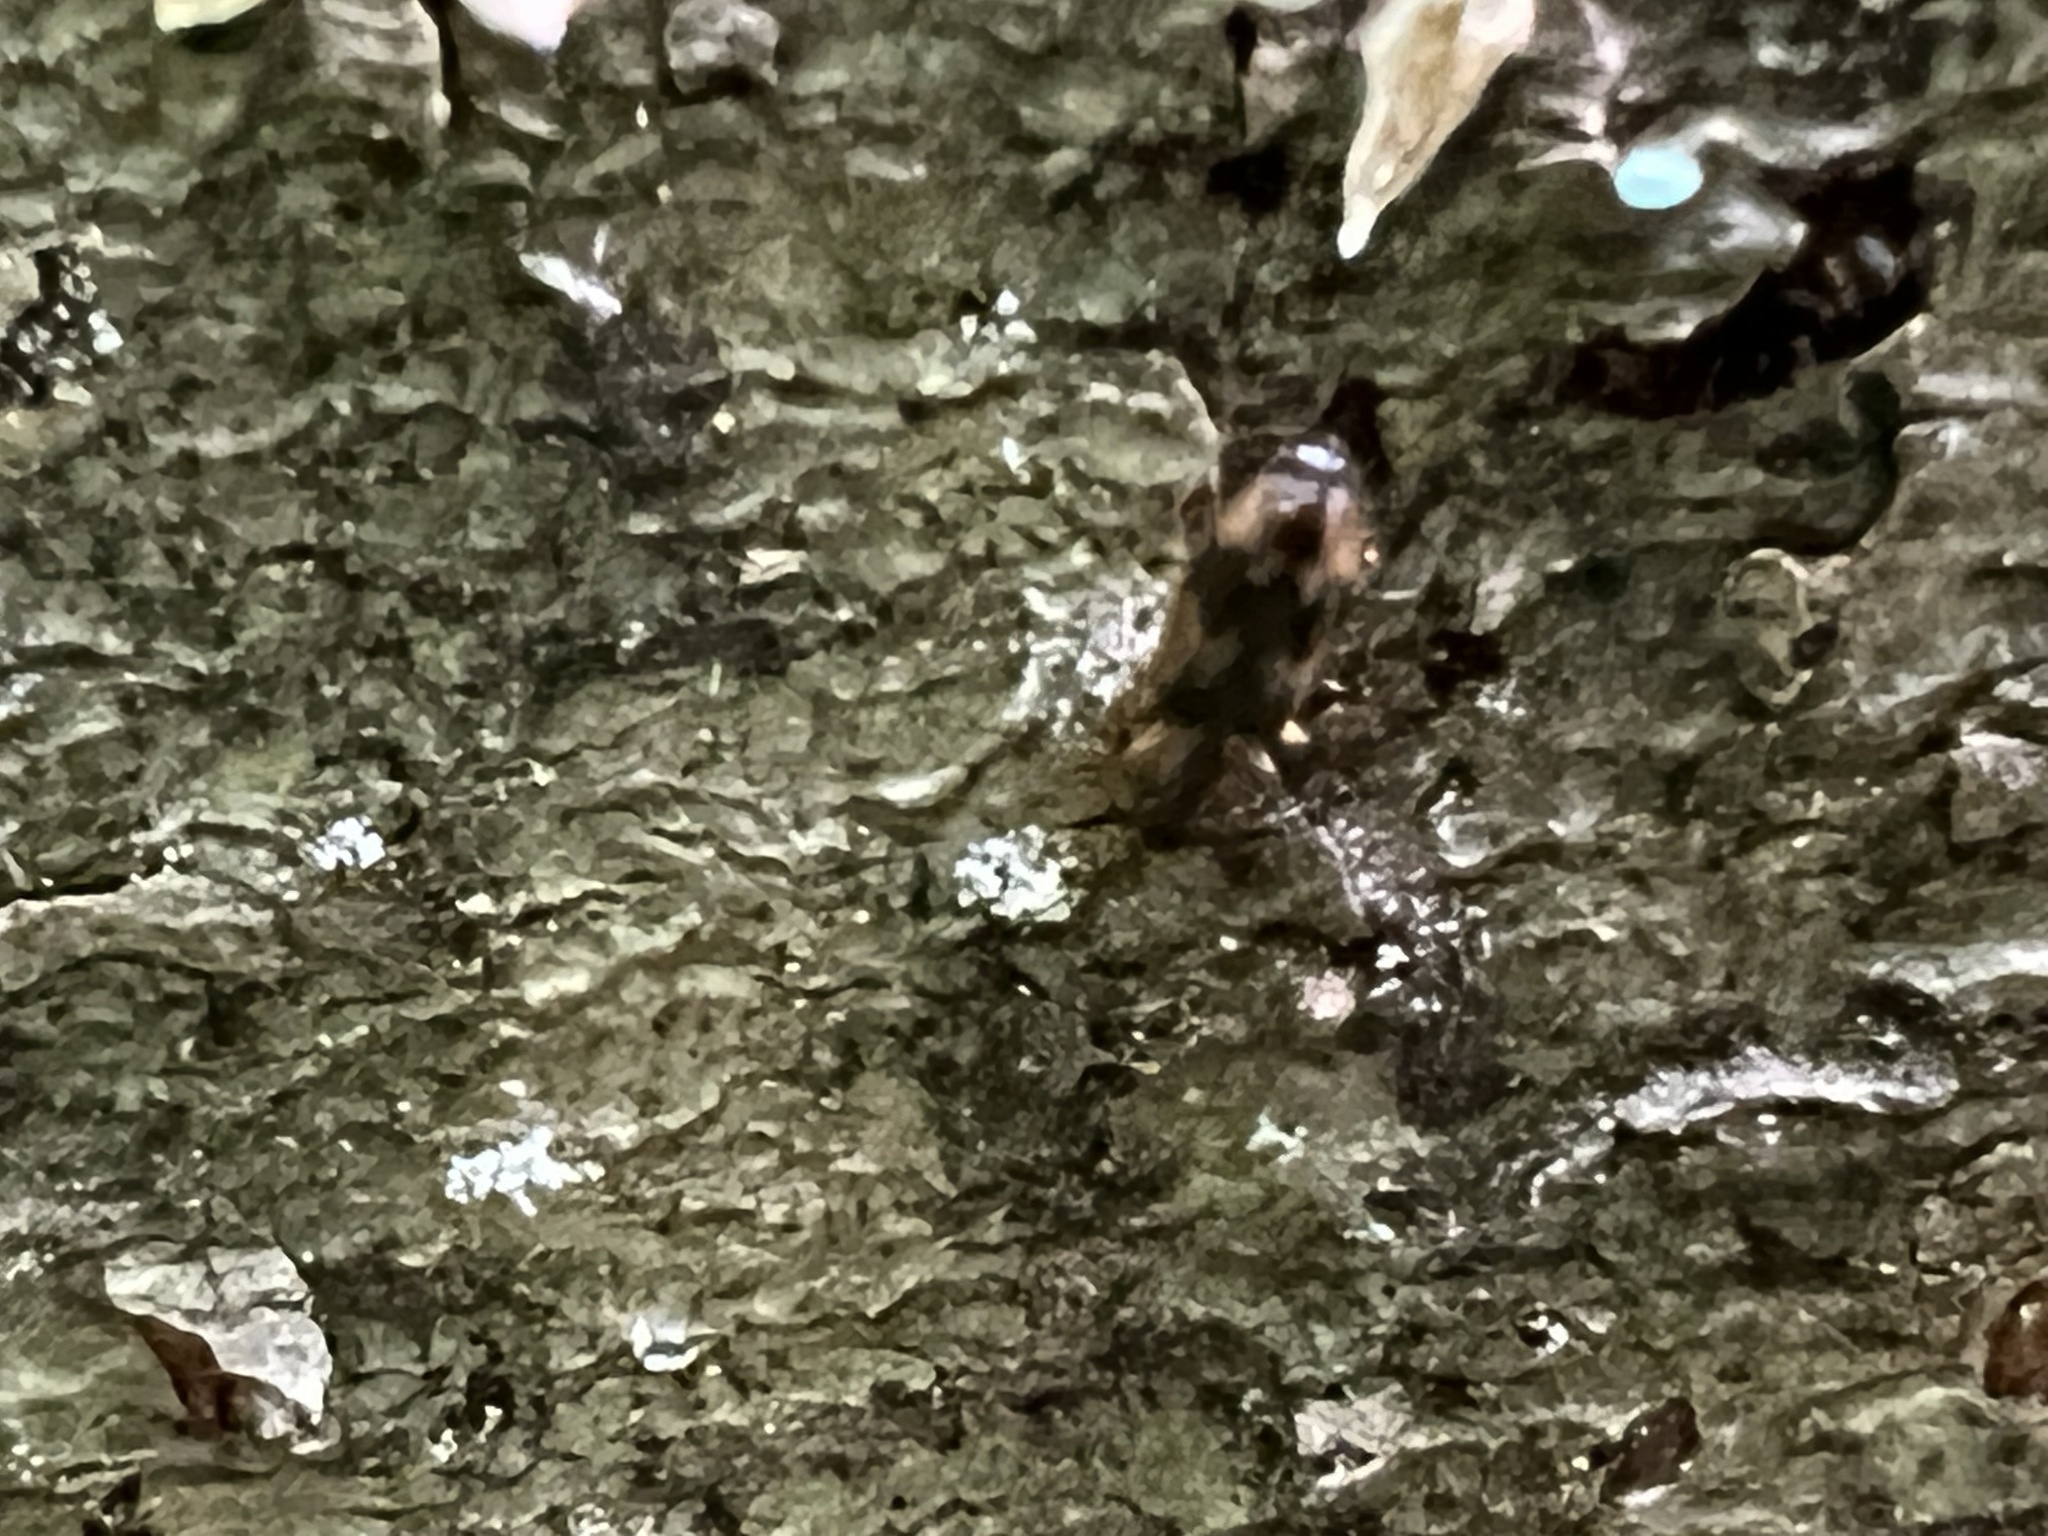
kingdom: Animalia
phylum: Arthropoda
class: Insecta
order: Coleoptera
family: Carabidae
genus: Phloeoxena
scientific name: Phloeoxena signata
